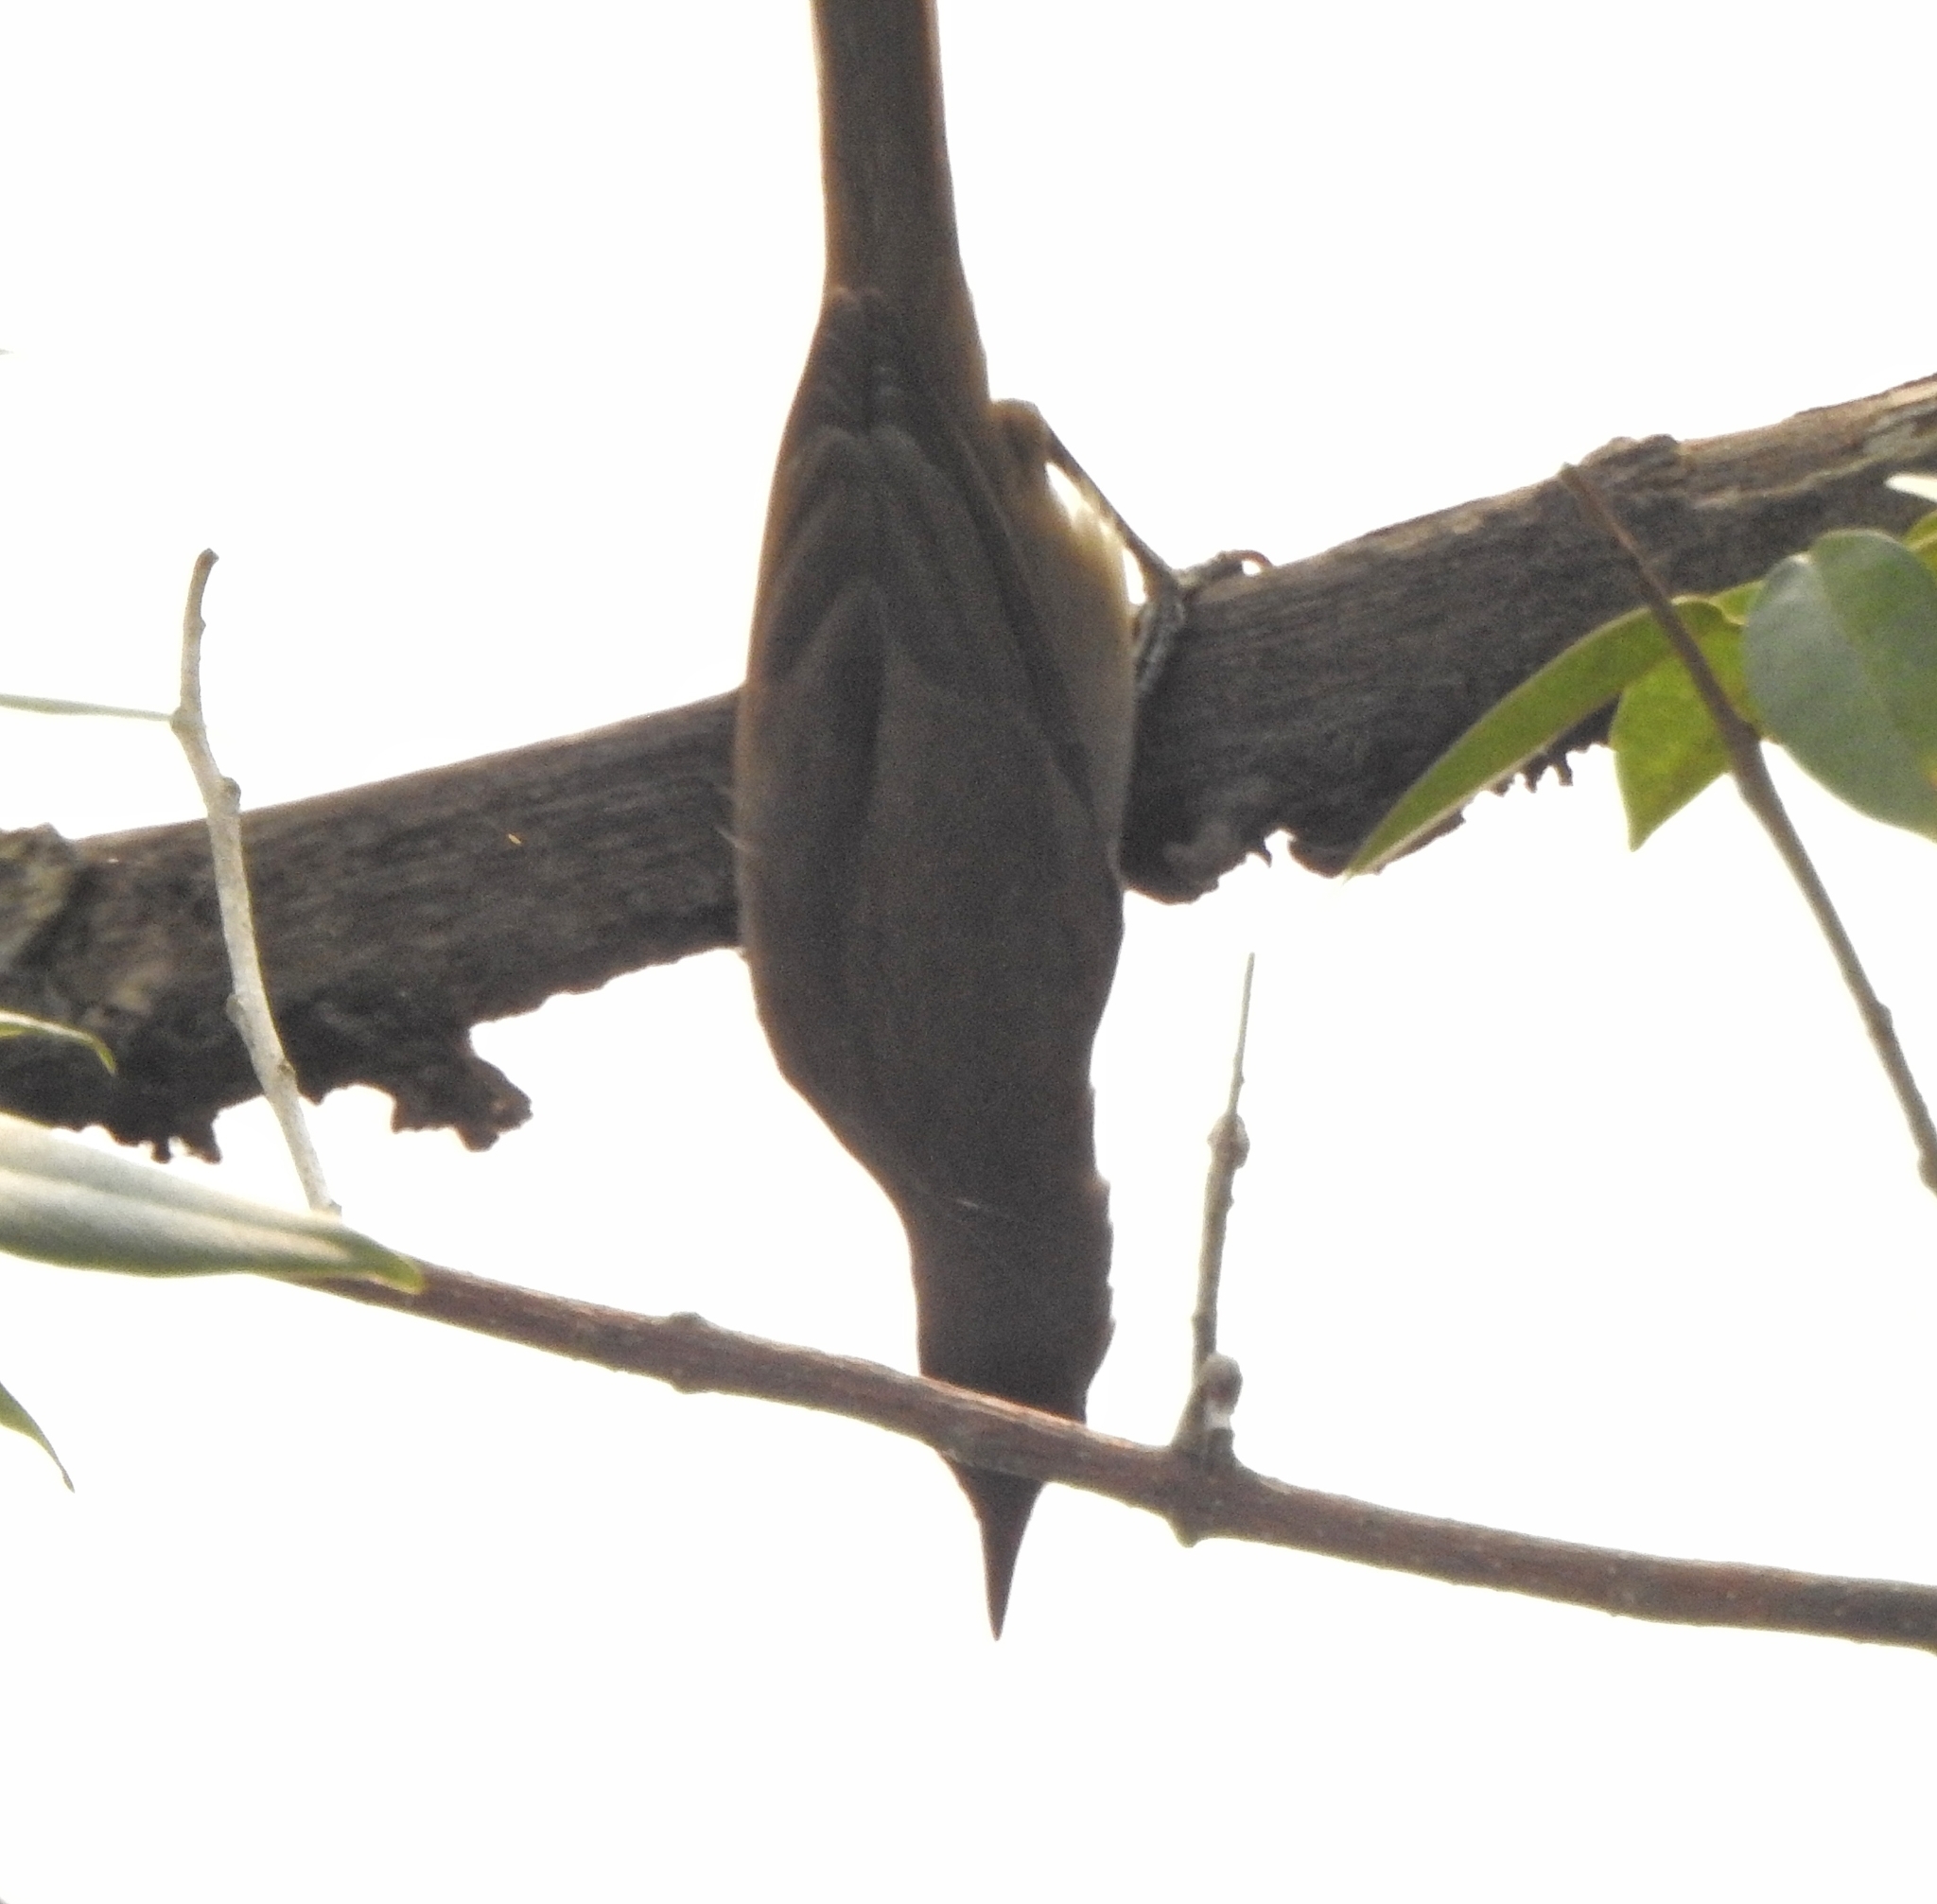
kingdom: Animalia
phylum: Chordata
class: Aves
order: Passeriformes
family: Acrocephalidae
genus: Acrocephalus
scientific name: Acrocephalus dumetorum
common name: Blyth's reed warbler
